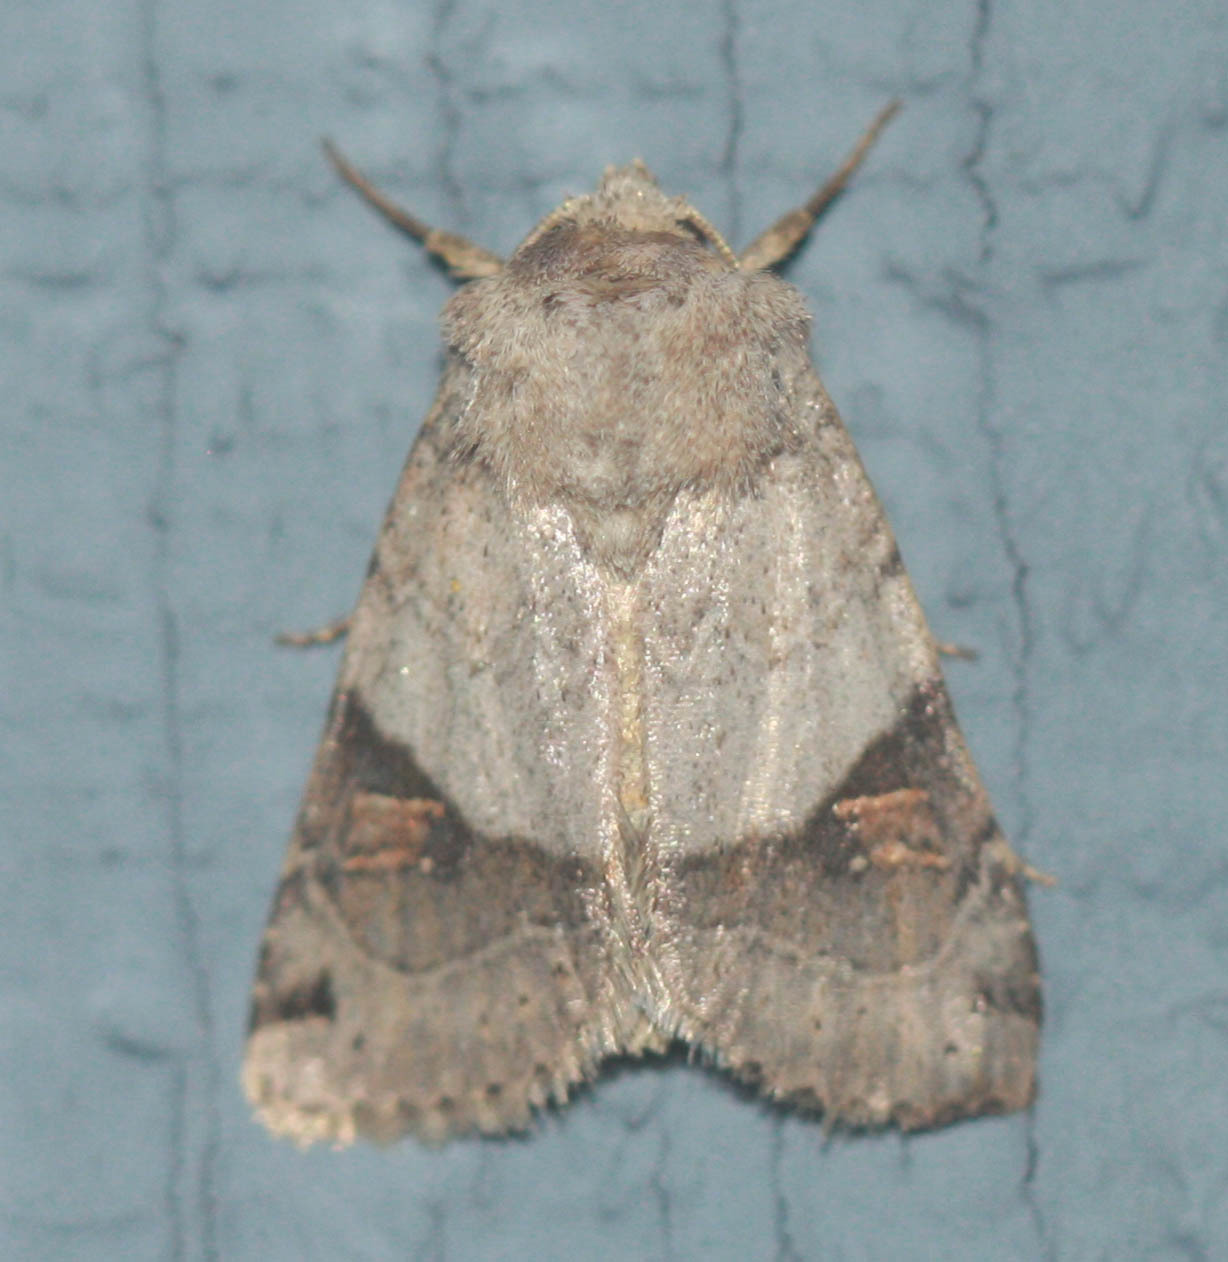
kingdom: Animalia
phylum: Arthropoda
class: Insecta
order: Lepidoptera
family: Noctuidae
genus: Ulolonche
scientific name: Ulolonche disticha
